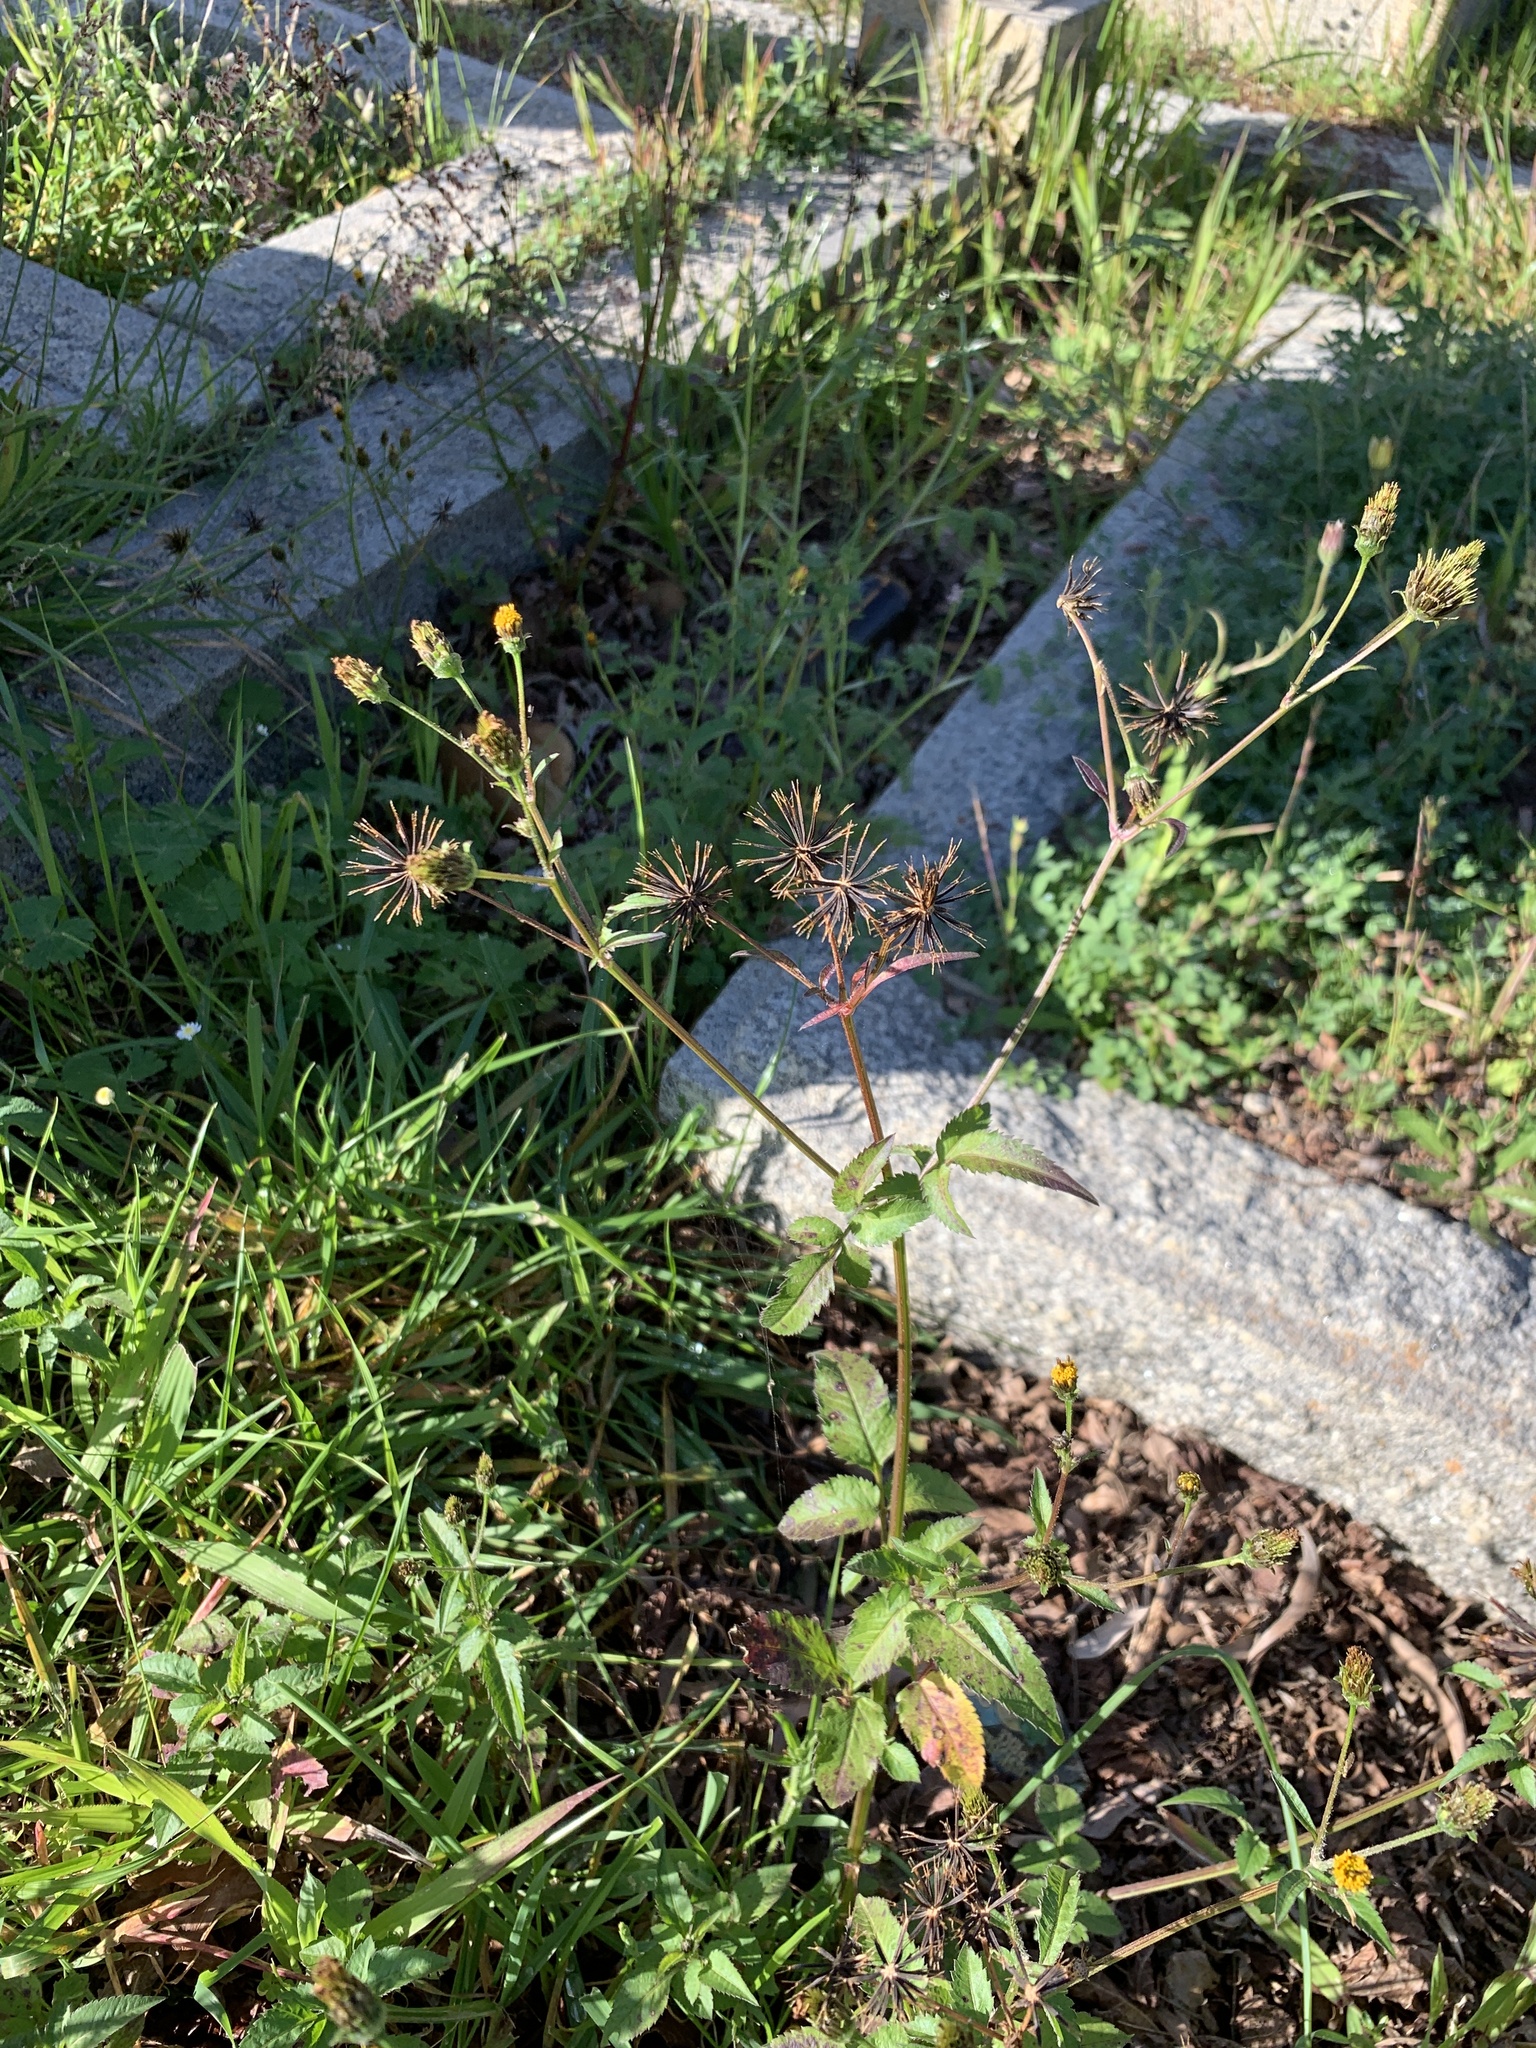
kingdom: Plantae
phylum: Tracheophyta
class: Magnoliopsida
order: Asterales
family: Asteraceae
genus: Bidens
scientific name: Bidens pilosa
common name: Black-jack
